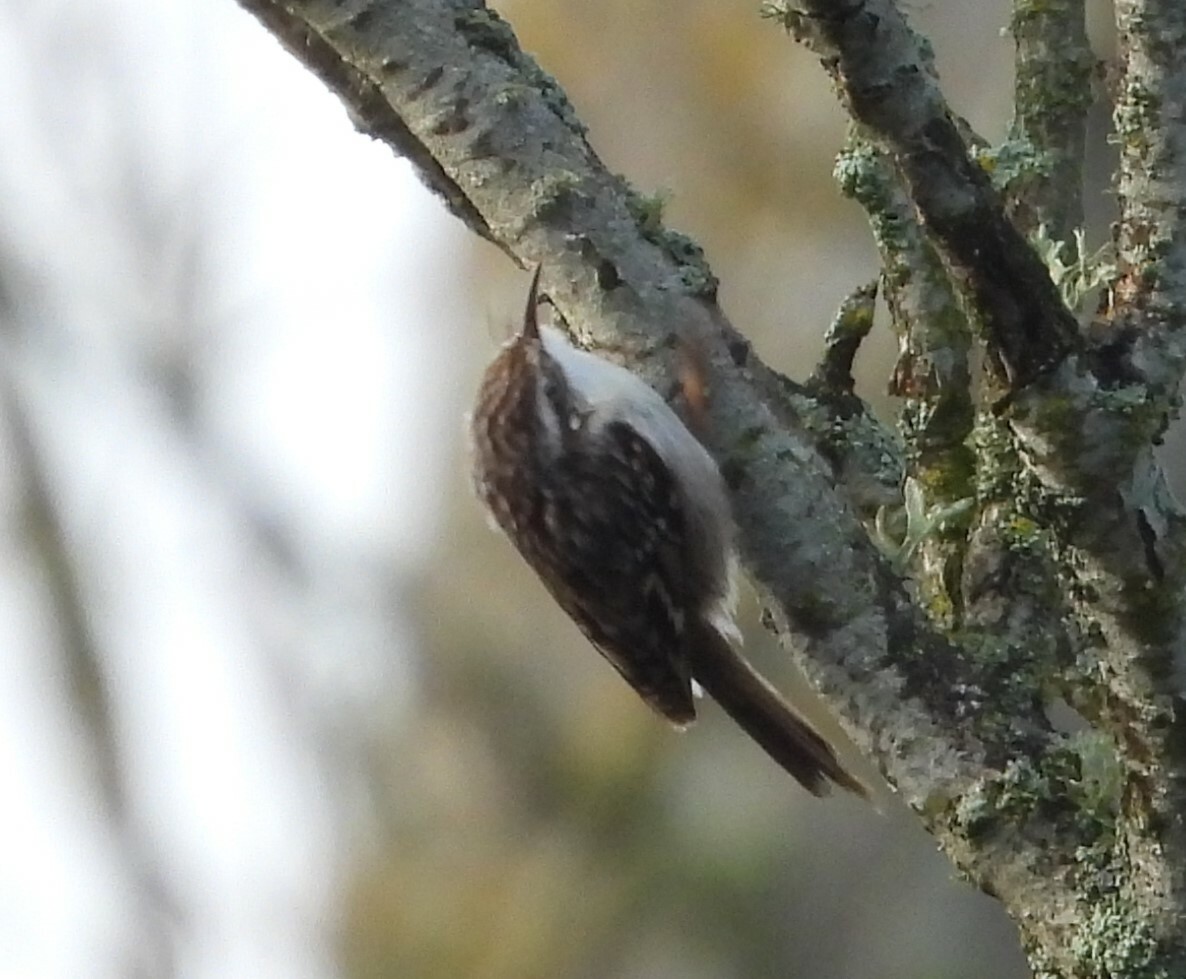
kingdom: Animalia
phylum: Chordata
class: Aves
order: Passeriformes
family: Certhiidae
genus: Certhia
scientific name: Certhia brachydactyla
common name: Short-toed treecreeper
